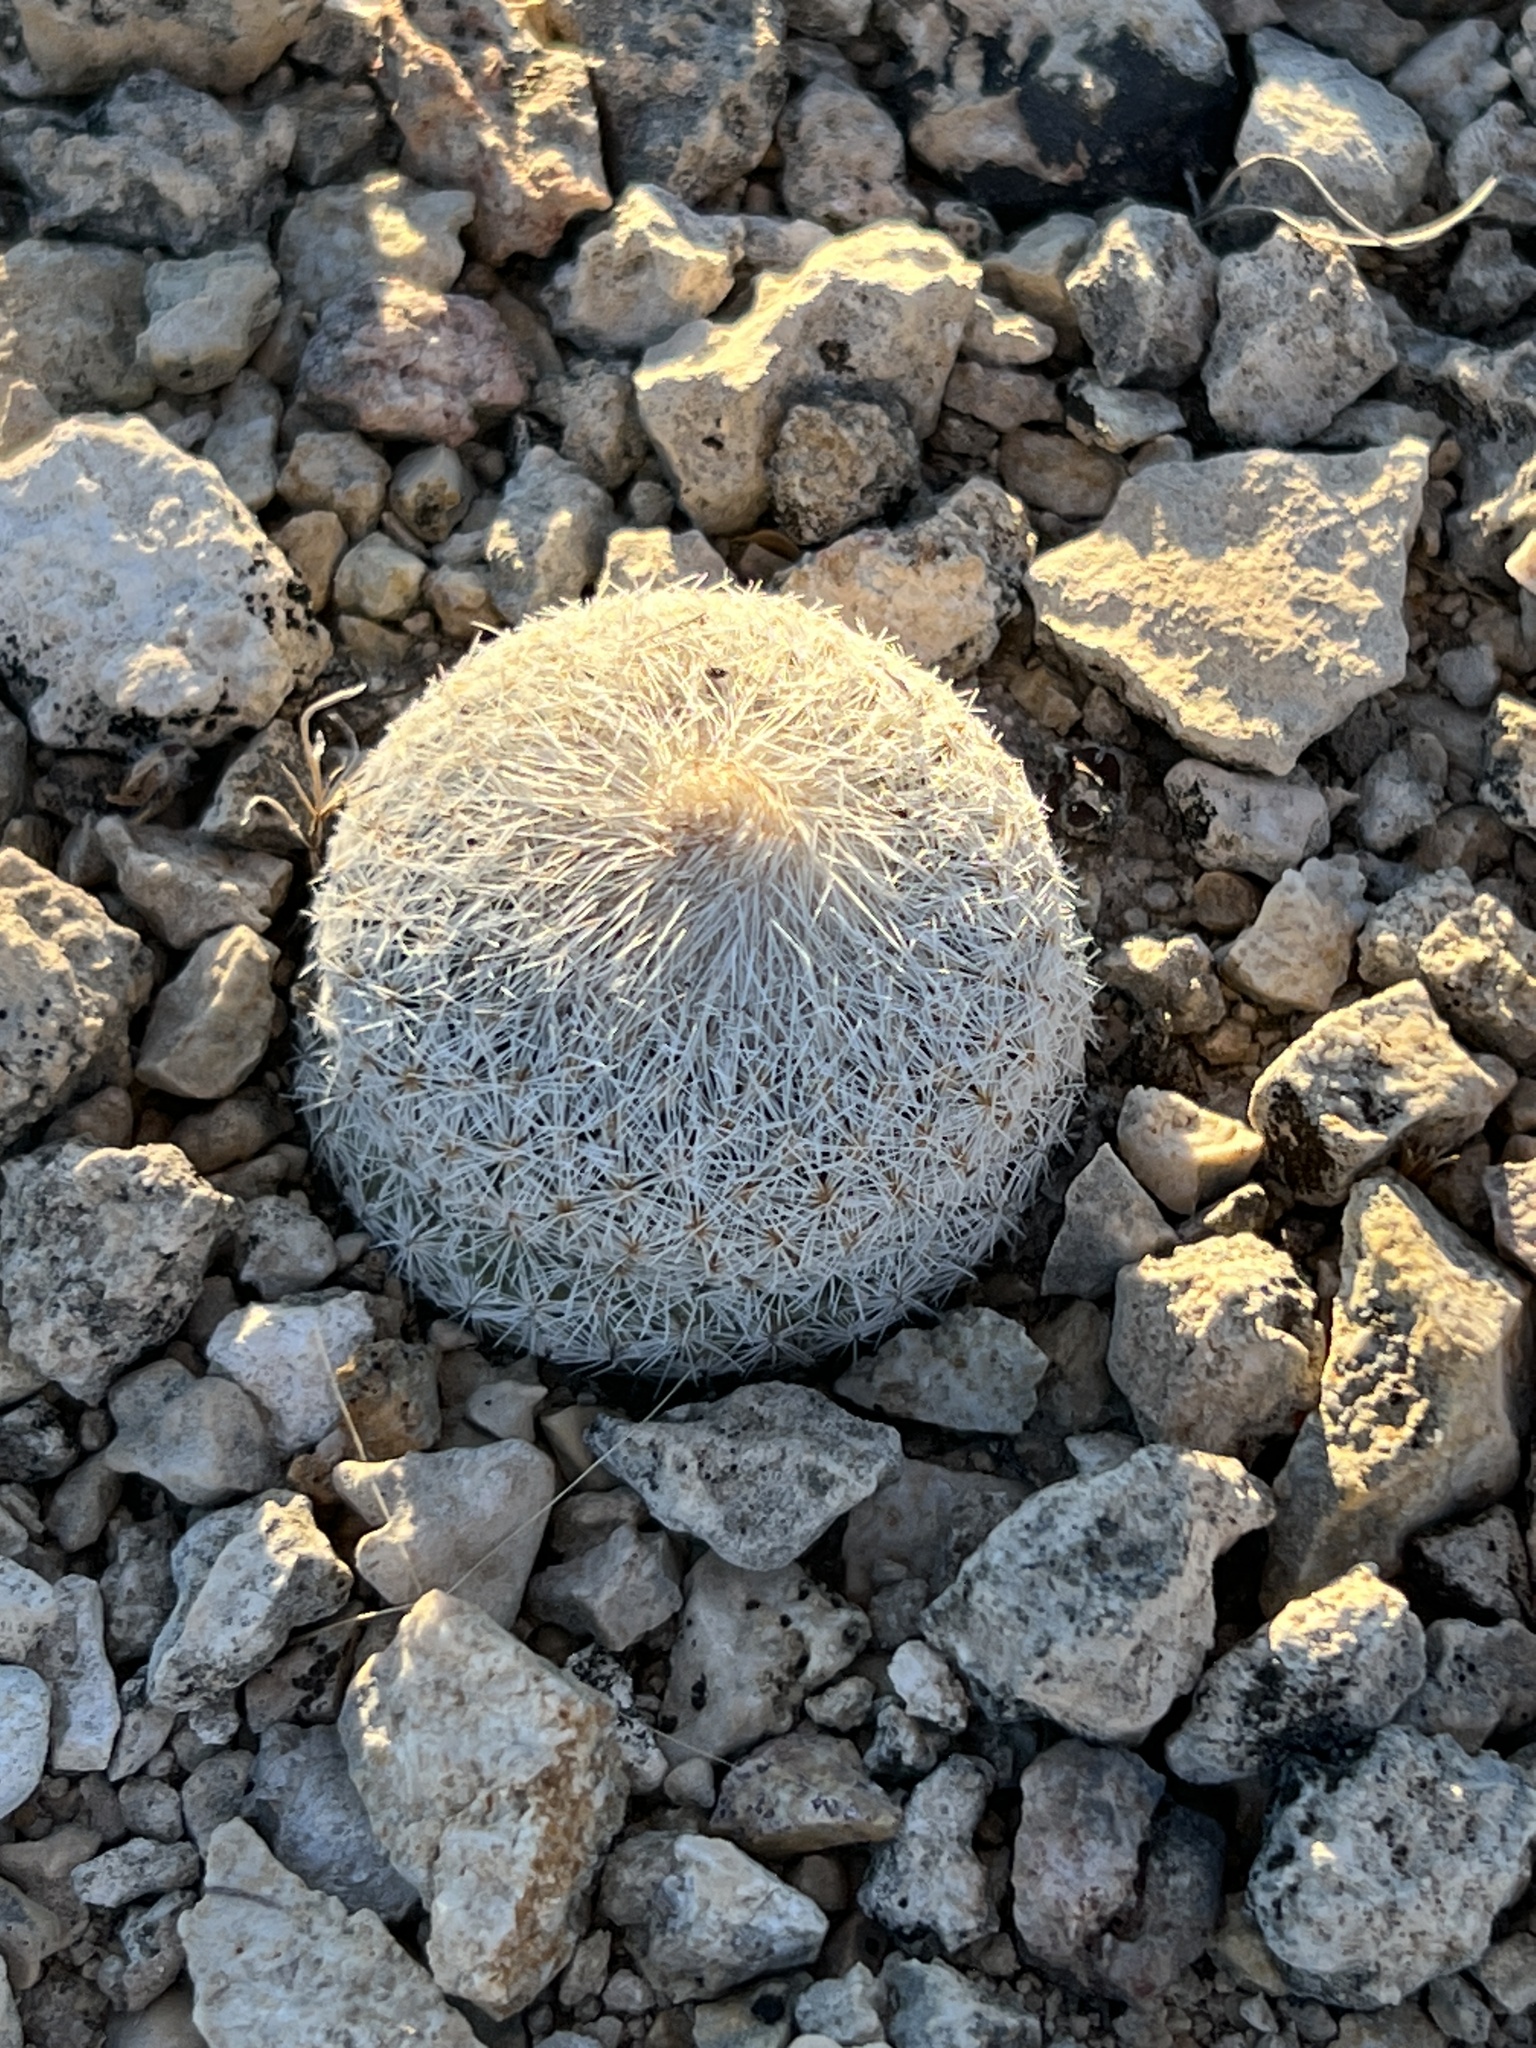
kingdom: Plantae
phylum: Tracheophyta
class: Magnoliopsida
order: Caryophyllales
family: Cactaceae
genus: Epithelantha
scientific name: Epithelantha micromeris
